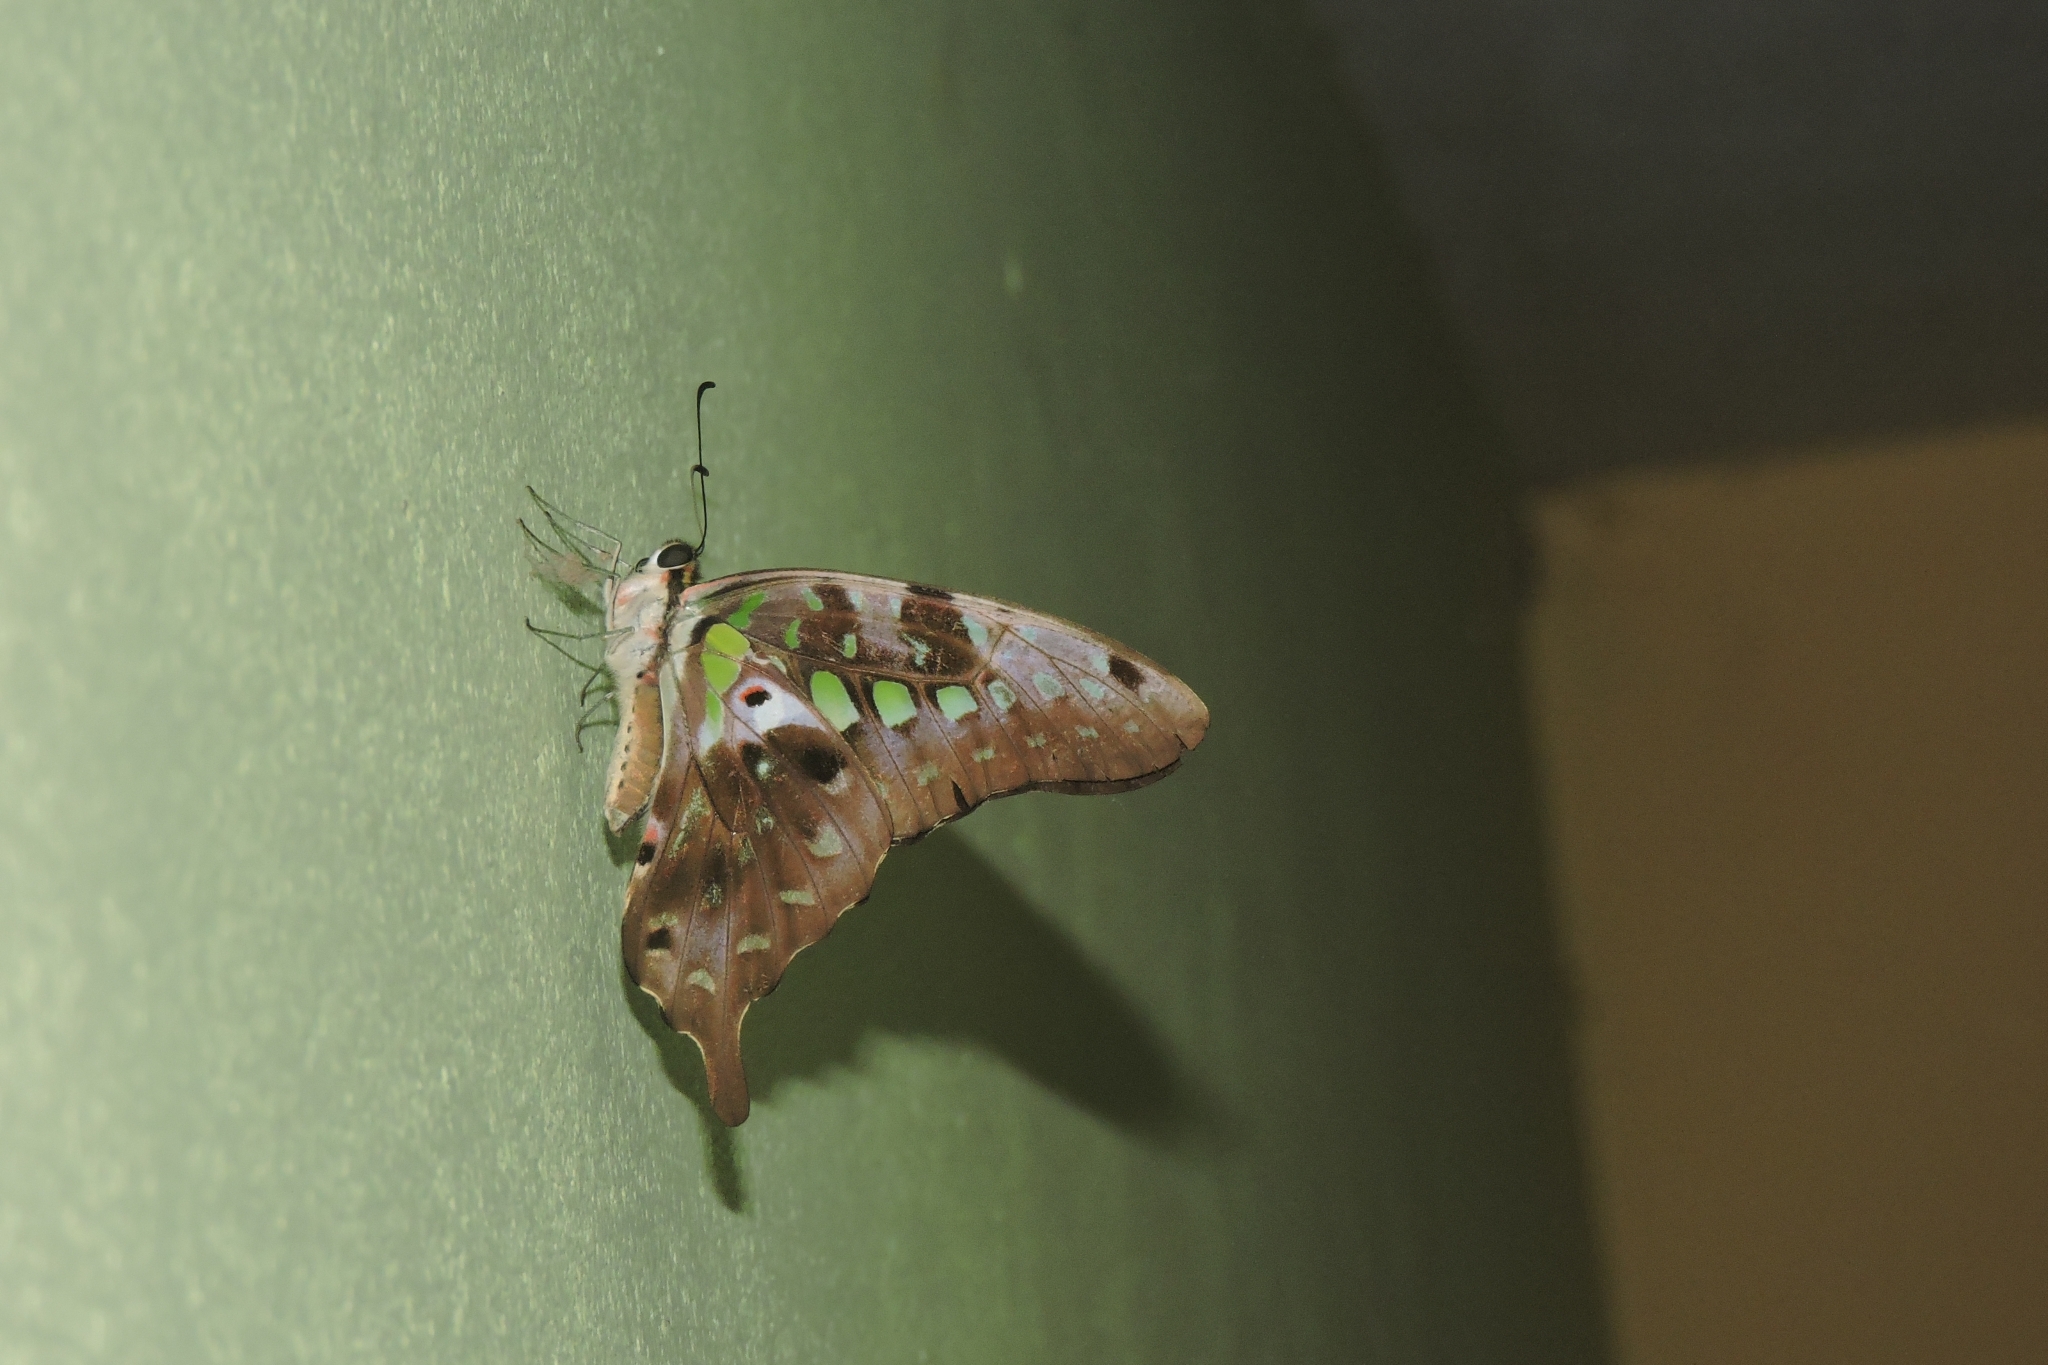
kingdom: Animalia
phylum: Arthropoda
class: Insecta
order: Lepidoptera
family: Papilionidae
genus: Graphium
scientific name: Graphium agamemnon
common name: Tailed jay
